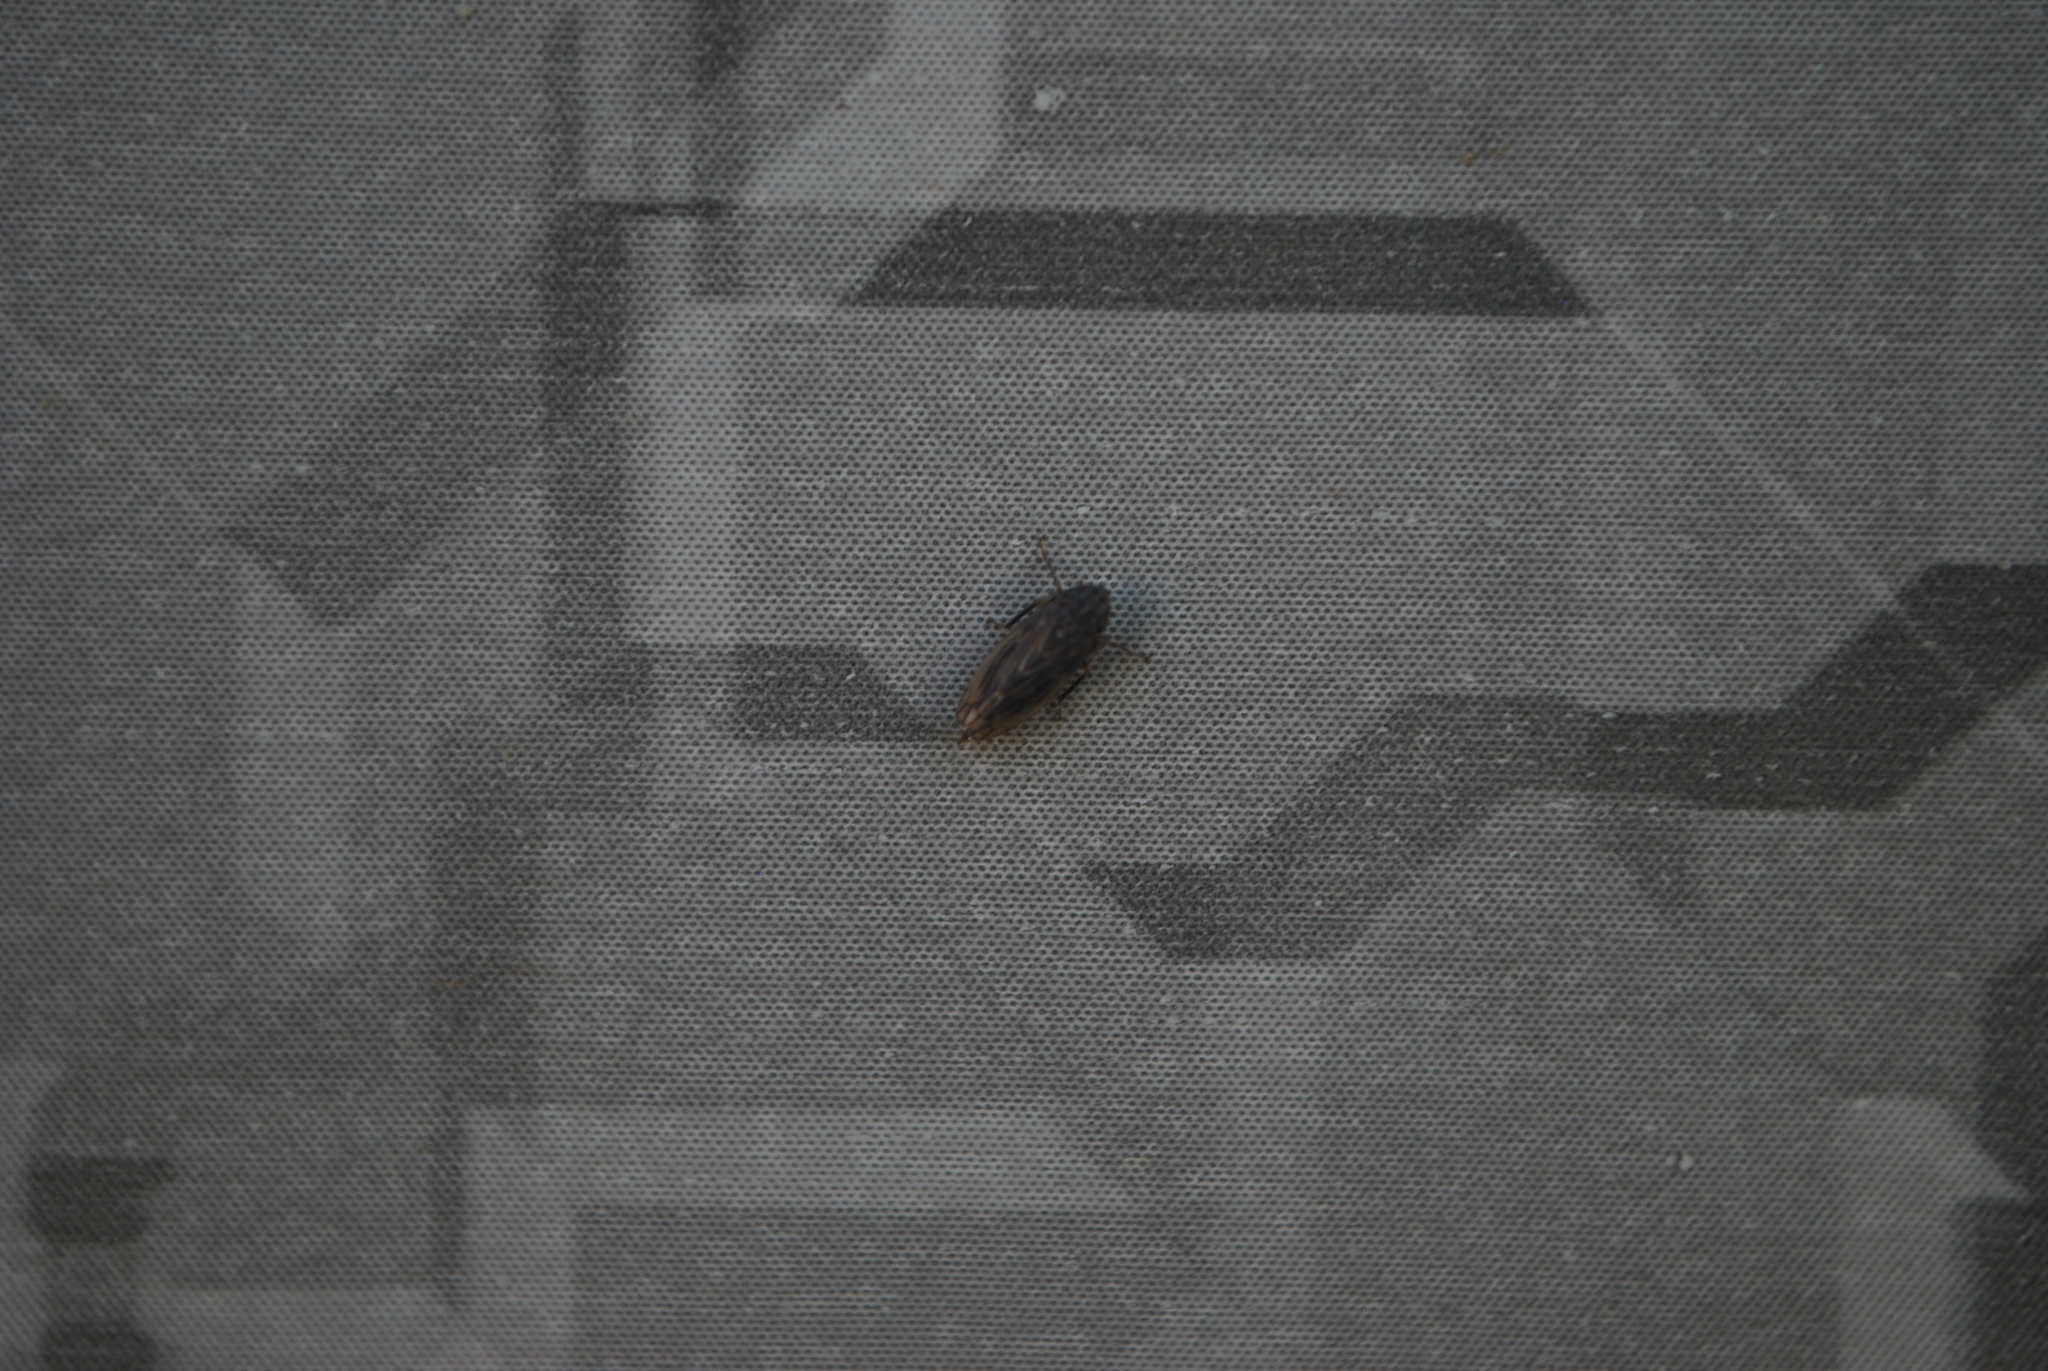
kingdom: Animalia
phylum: Arthropoda
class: Insecta
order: Hemiptera
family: Cicadellidae
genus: Stirellus
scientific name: Stirellus bicolor
